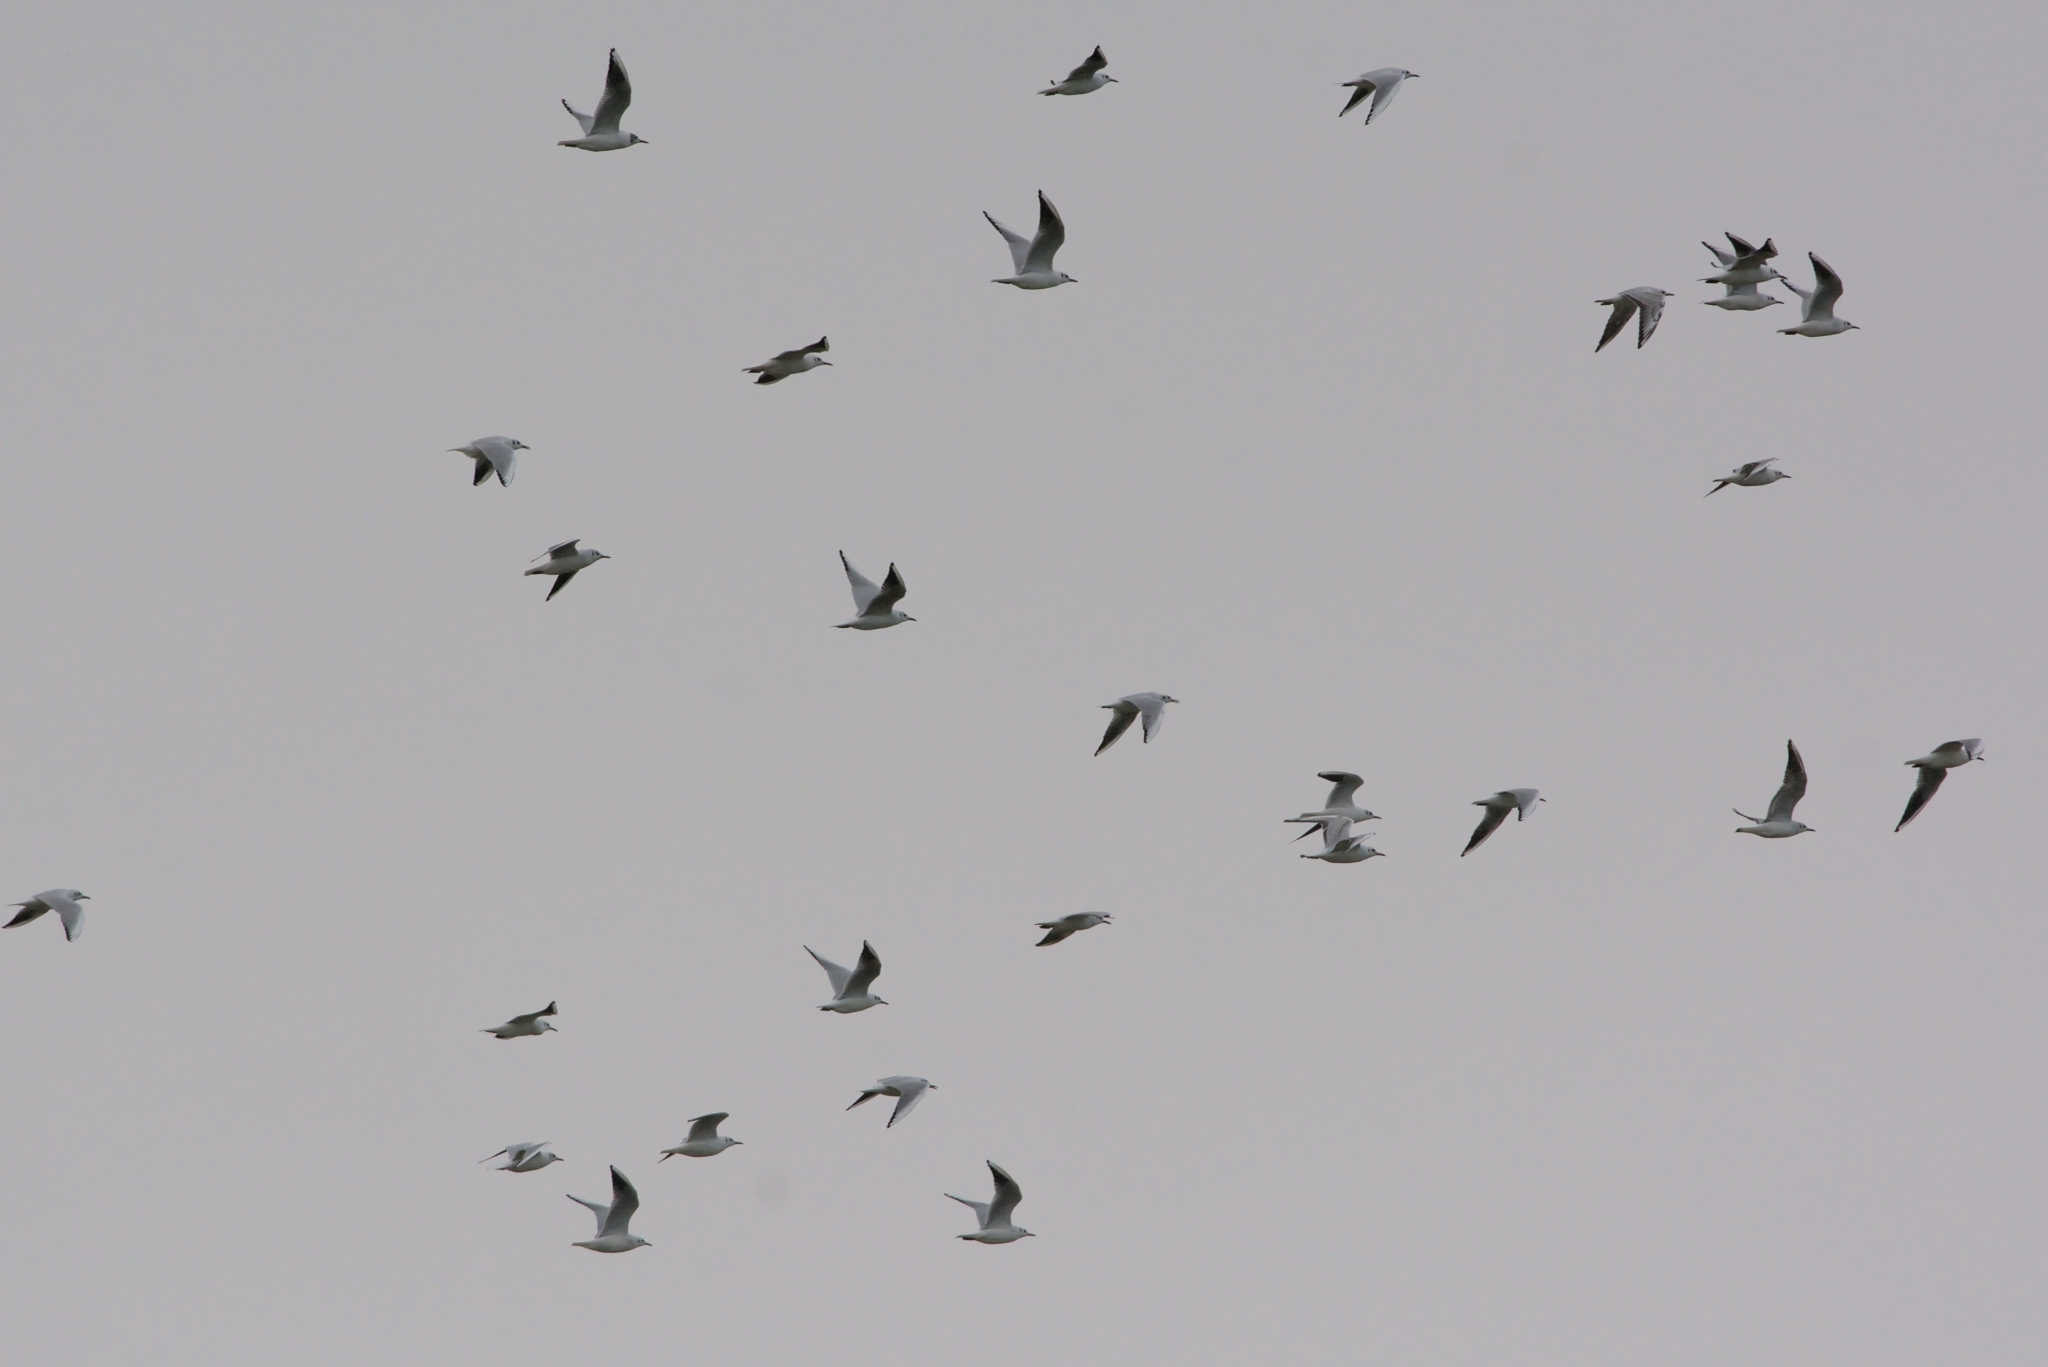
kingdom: Animalia
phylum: Chordata
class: Aves
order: Charadriiformes
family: Laridae
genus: Chroicocephalus
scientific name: Chroicocephalus ridibundus
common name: Black-headed gull
